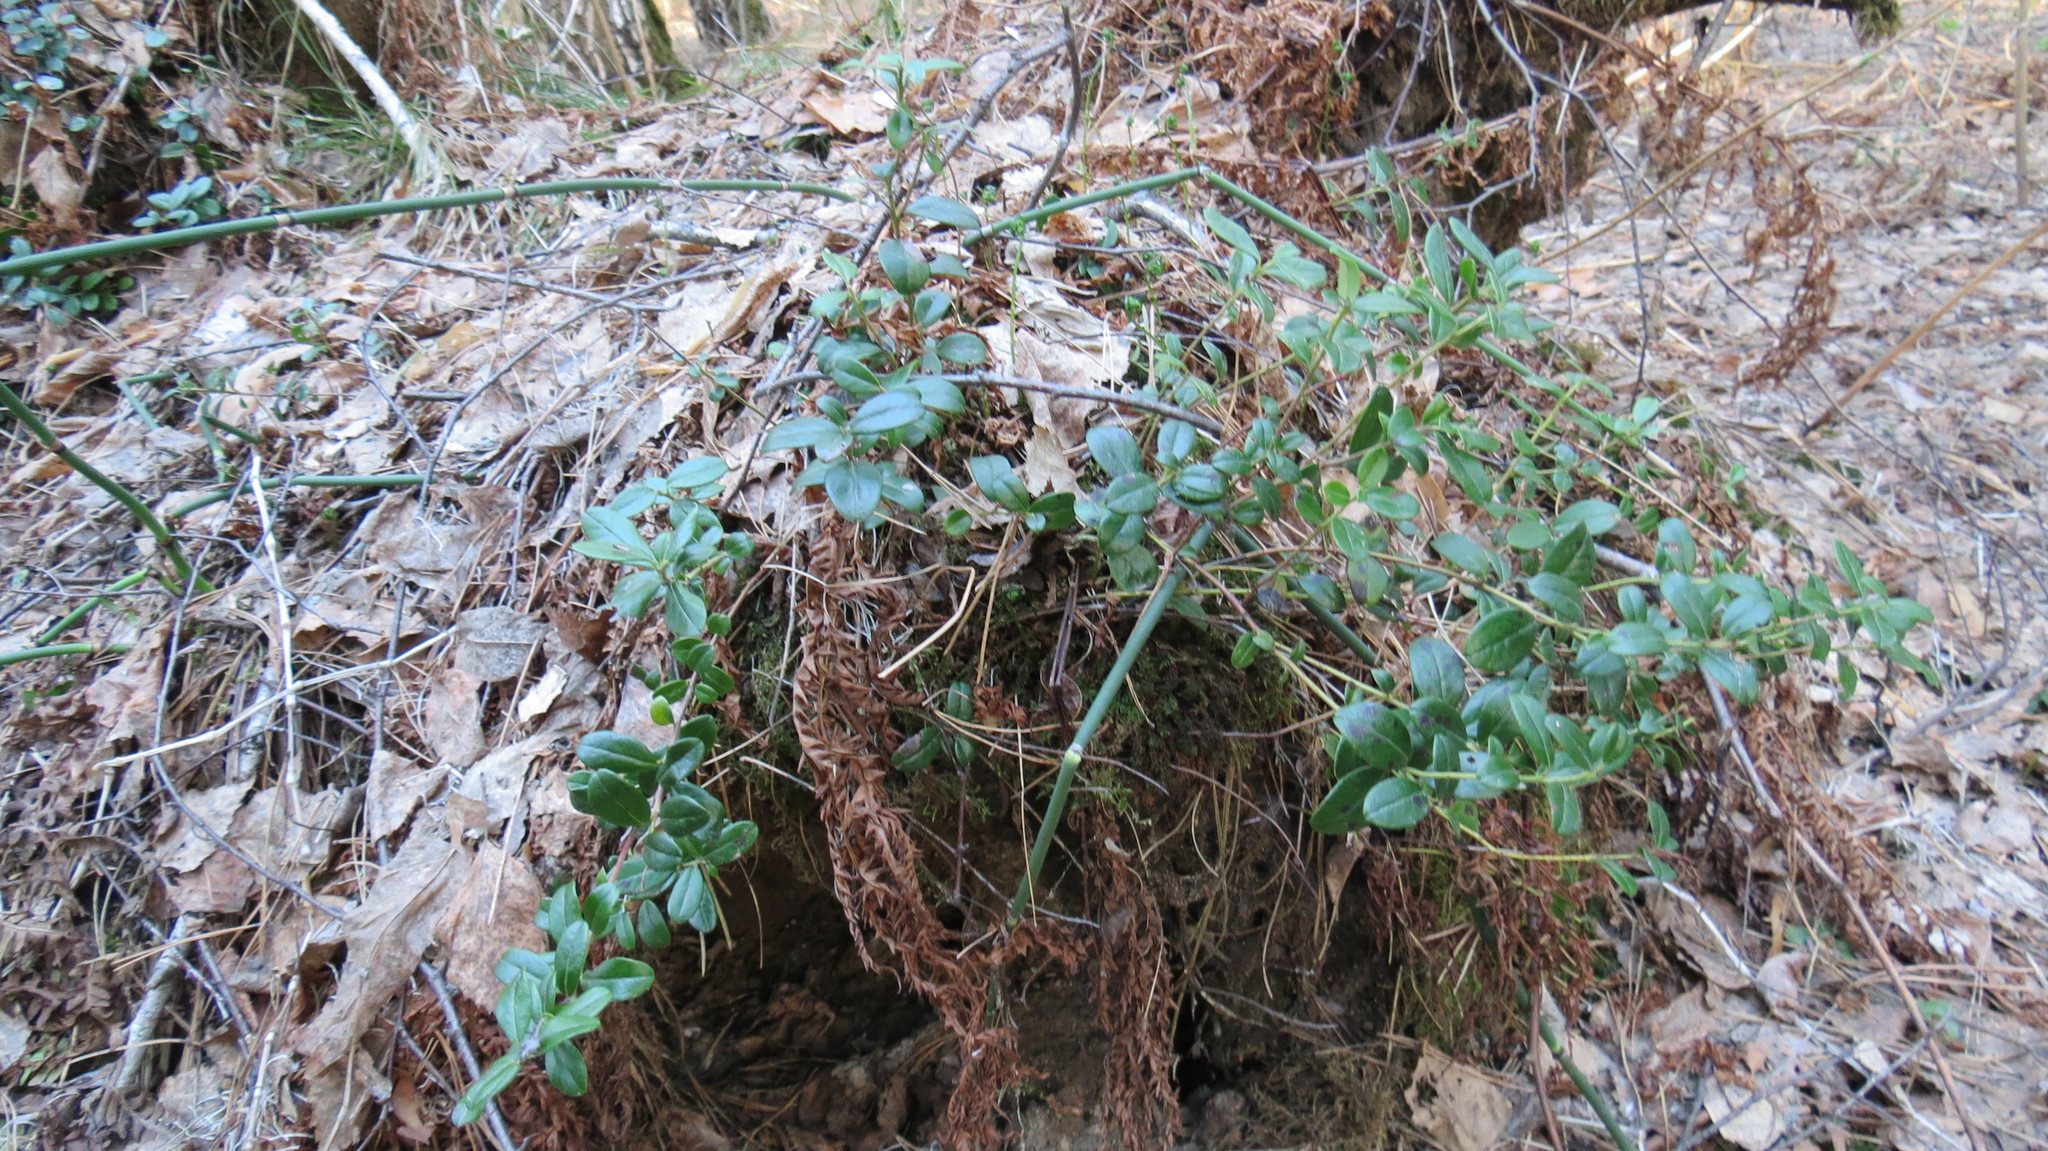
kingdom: Plantae
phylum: Tracheophyta
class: Magnoliopsida
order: Ericales
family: Ericaceae
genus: Vaccinium
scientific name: Vaccinium vitis-idaea
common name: Cowberry
